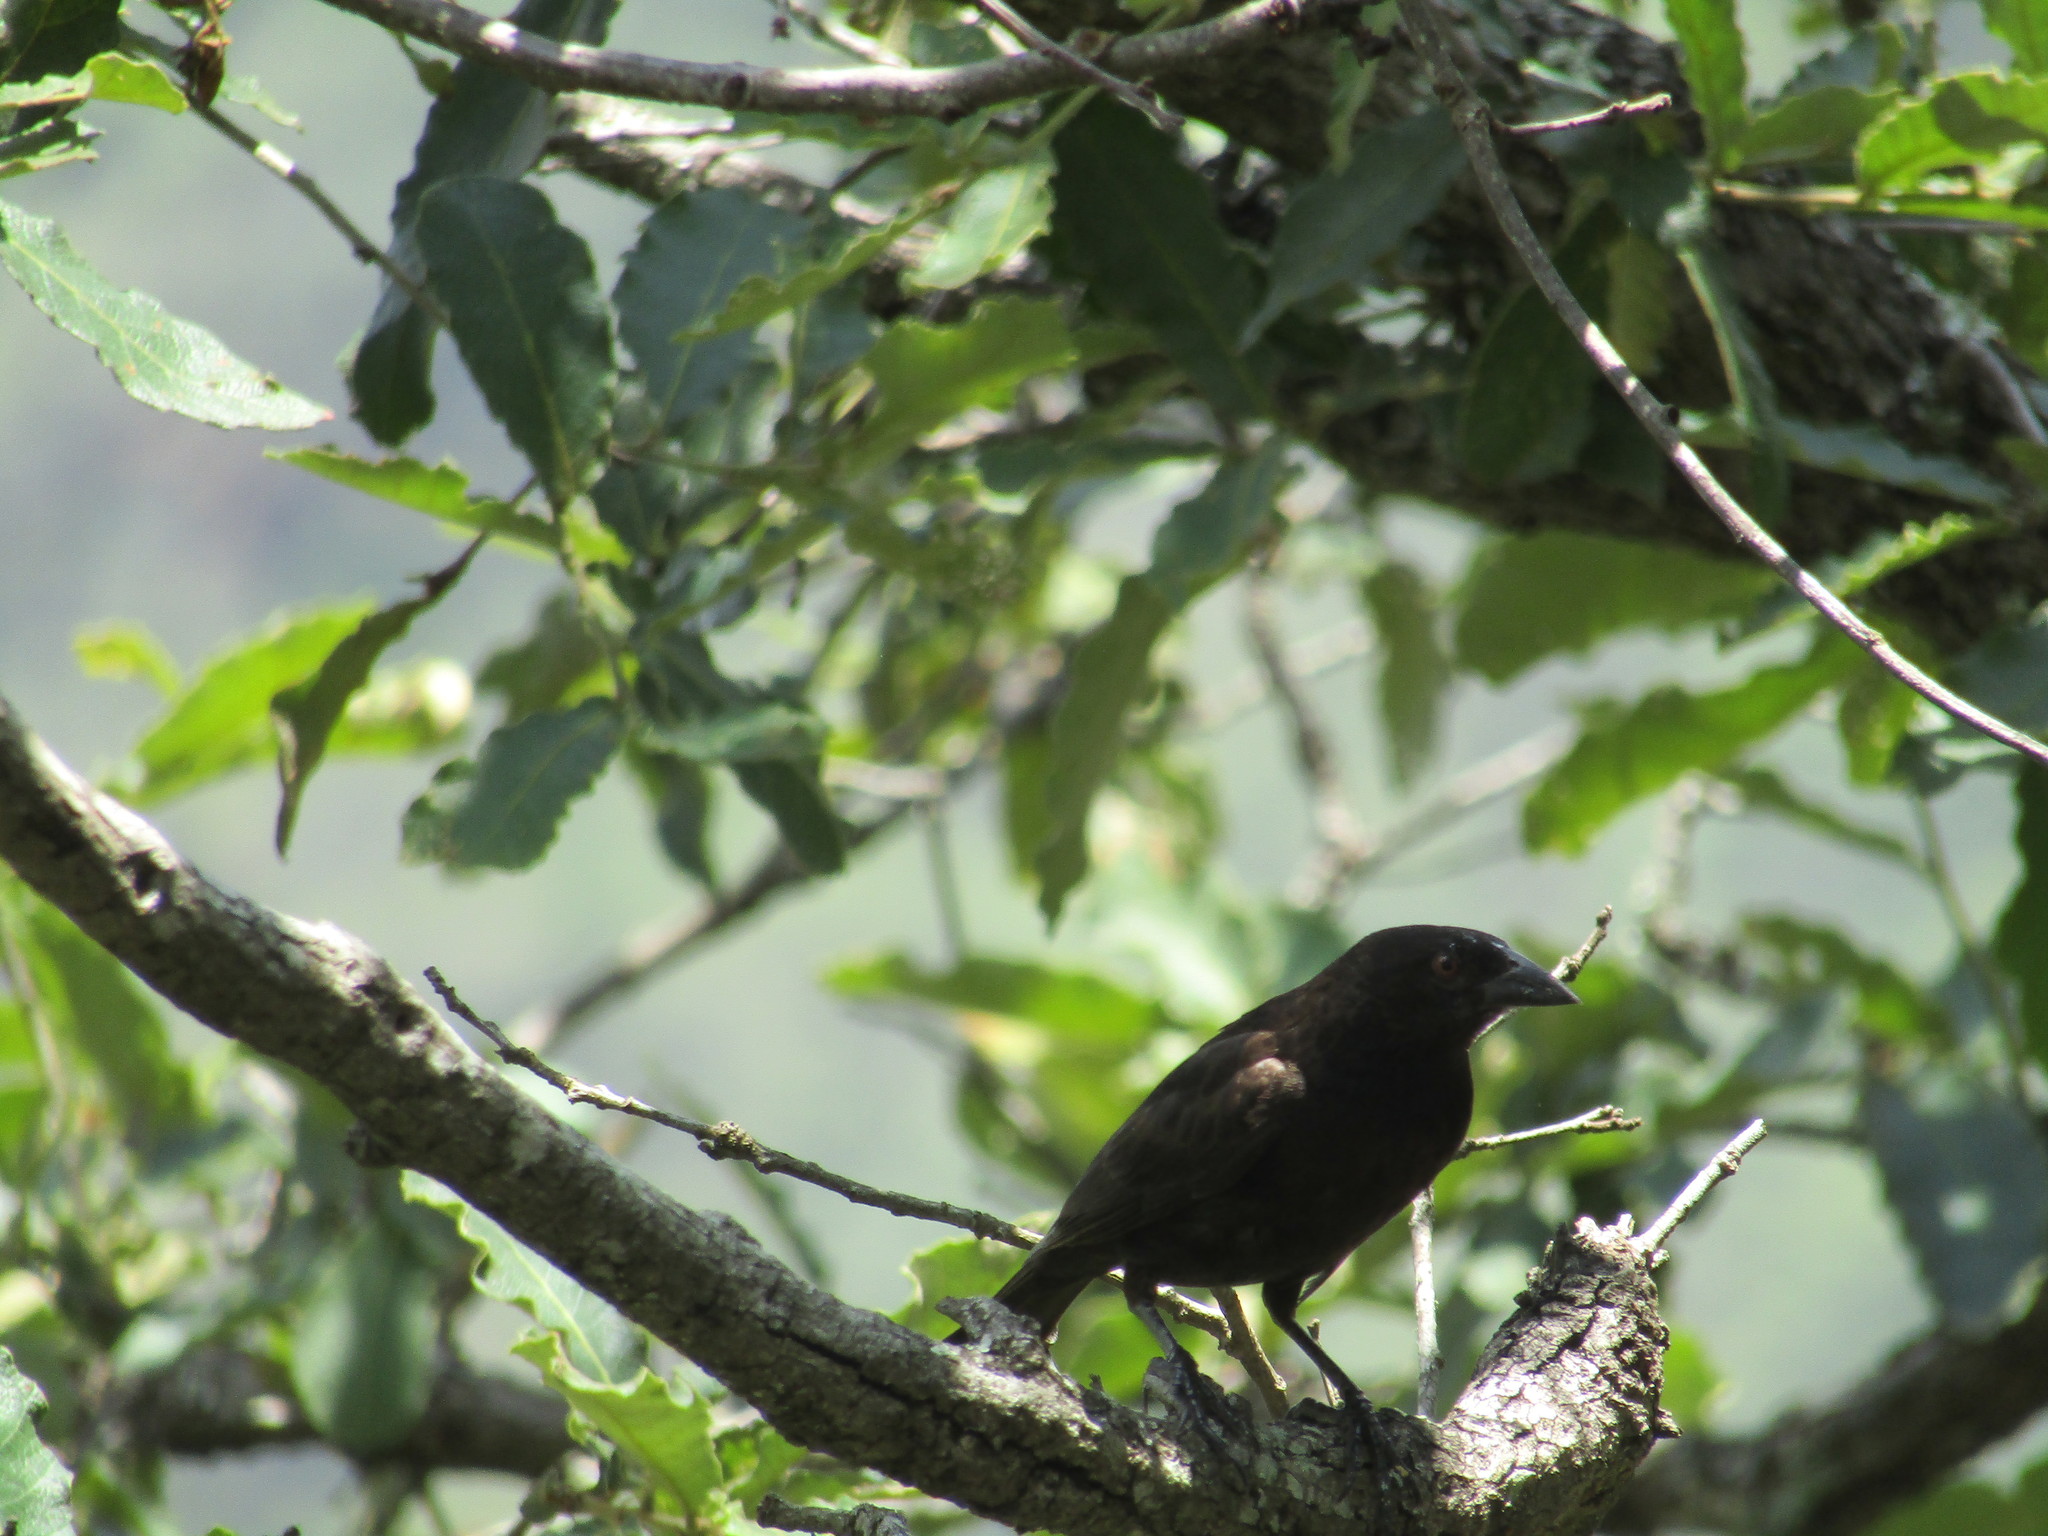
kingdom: Animalia
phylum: Chordata
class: Aves
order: Passeriformes
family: Icteridae
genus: Molothrus
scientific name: Molothrus aeneus
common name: Bronzed cowbird
